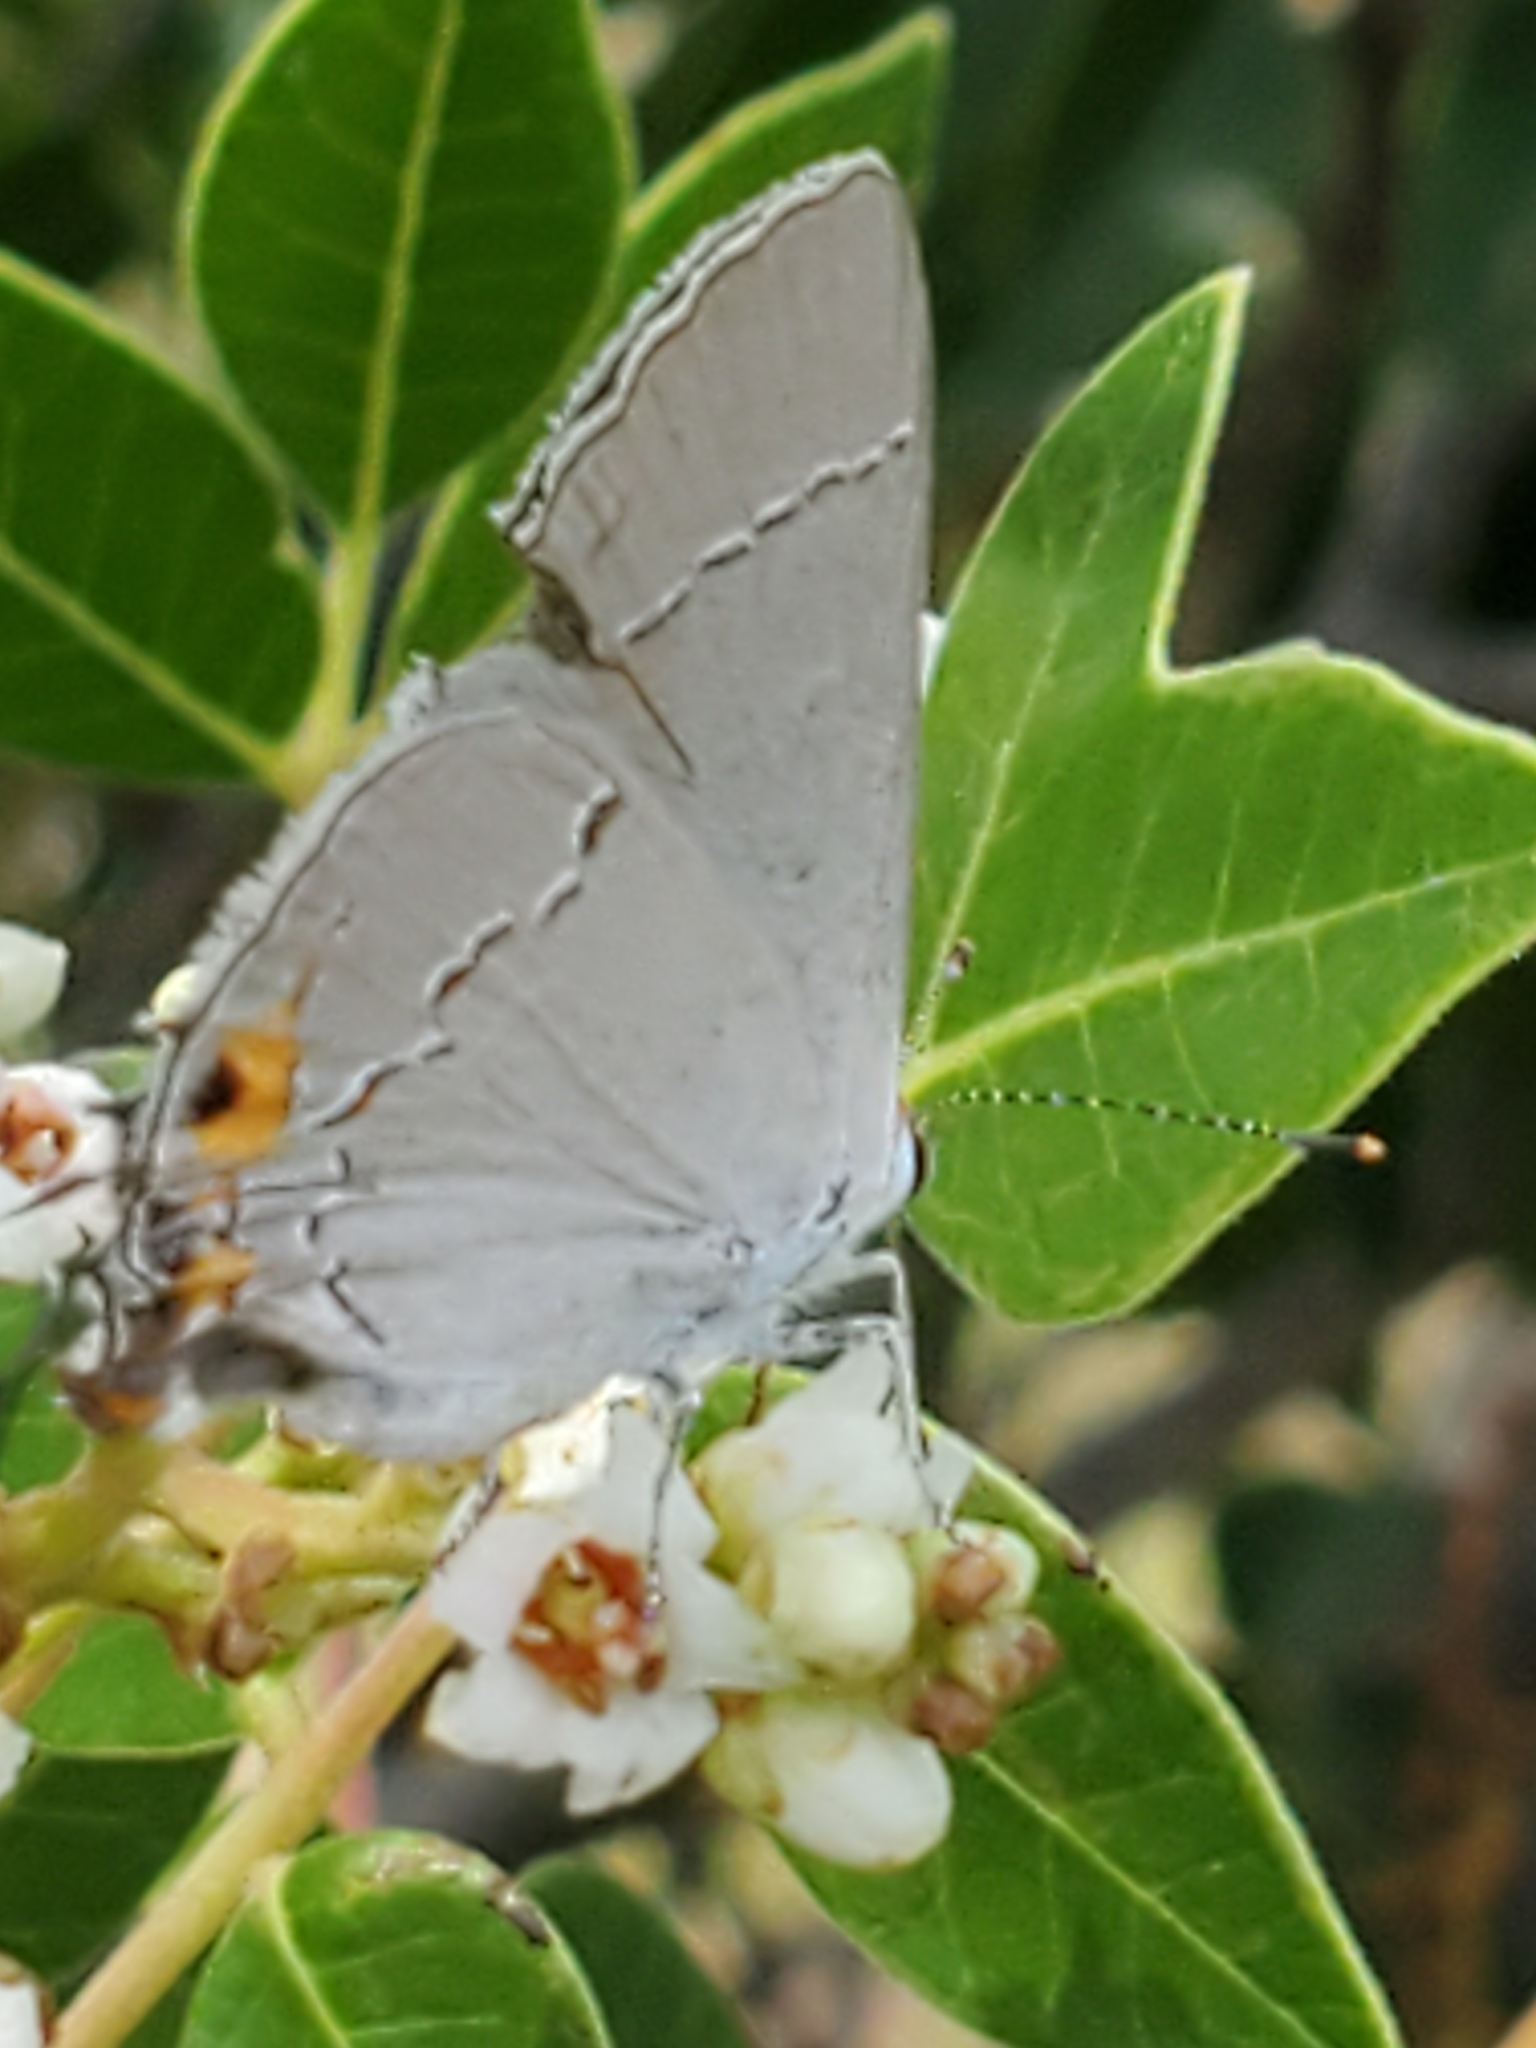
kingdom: Animalia
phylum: Arthropoda
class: Insecta
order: Lepidoptera
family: Lycaenidae
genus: Strymon
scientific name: Strymon melinus
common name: Gray hairstreak
